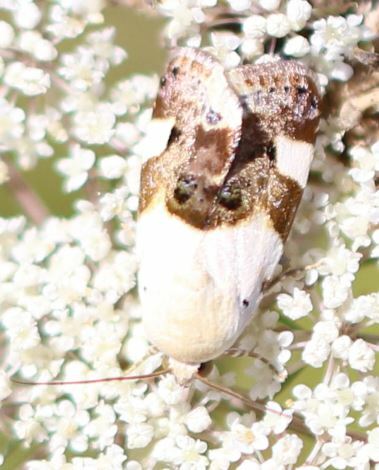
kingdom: Animalia
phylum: Arthropoda
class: Insecta
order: Lepidoptera
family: Noctuidae
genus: Acontia
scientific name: Acontia lucida
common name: Pale shoulder
